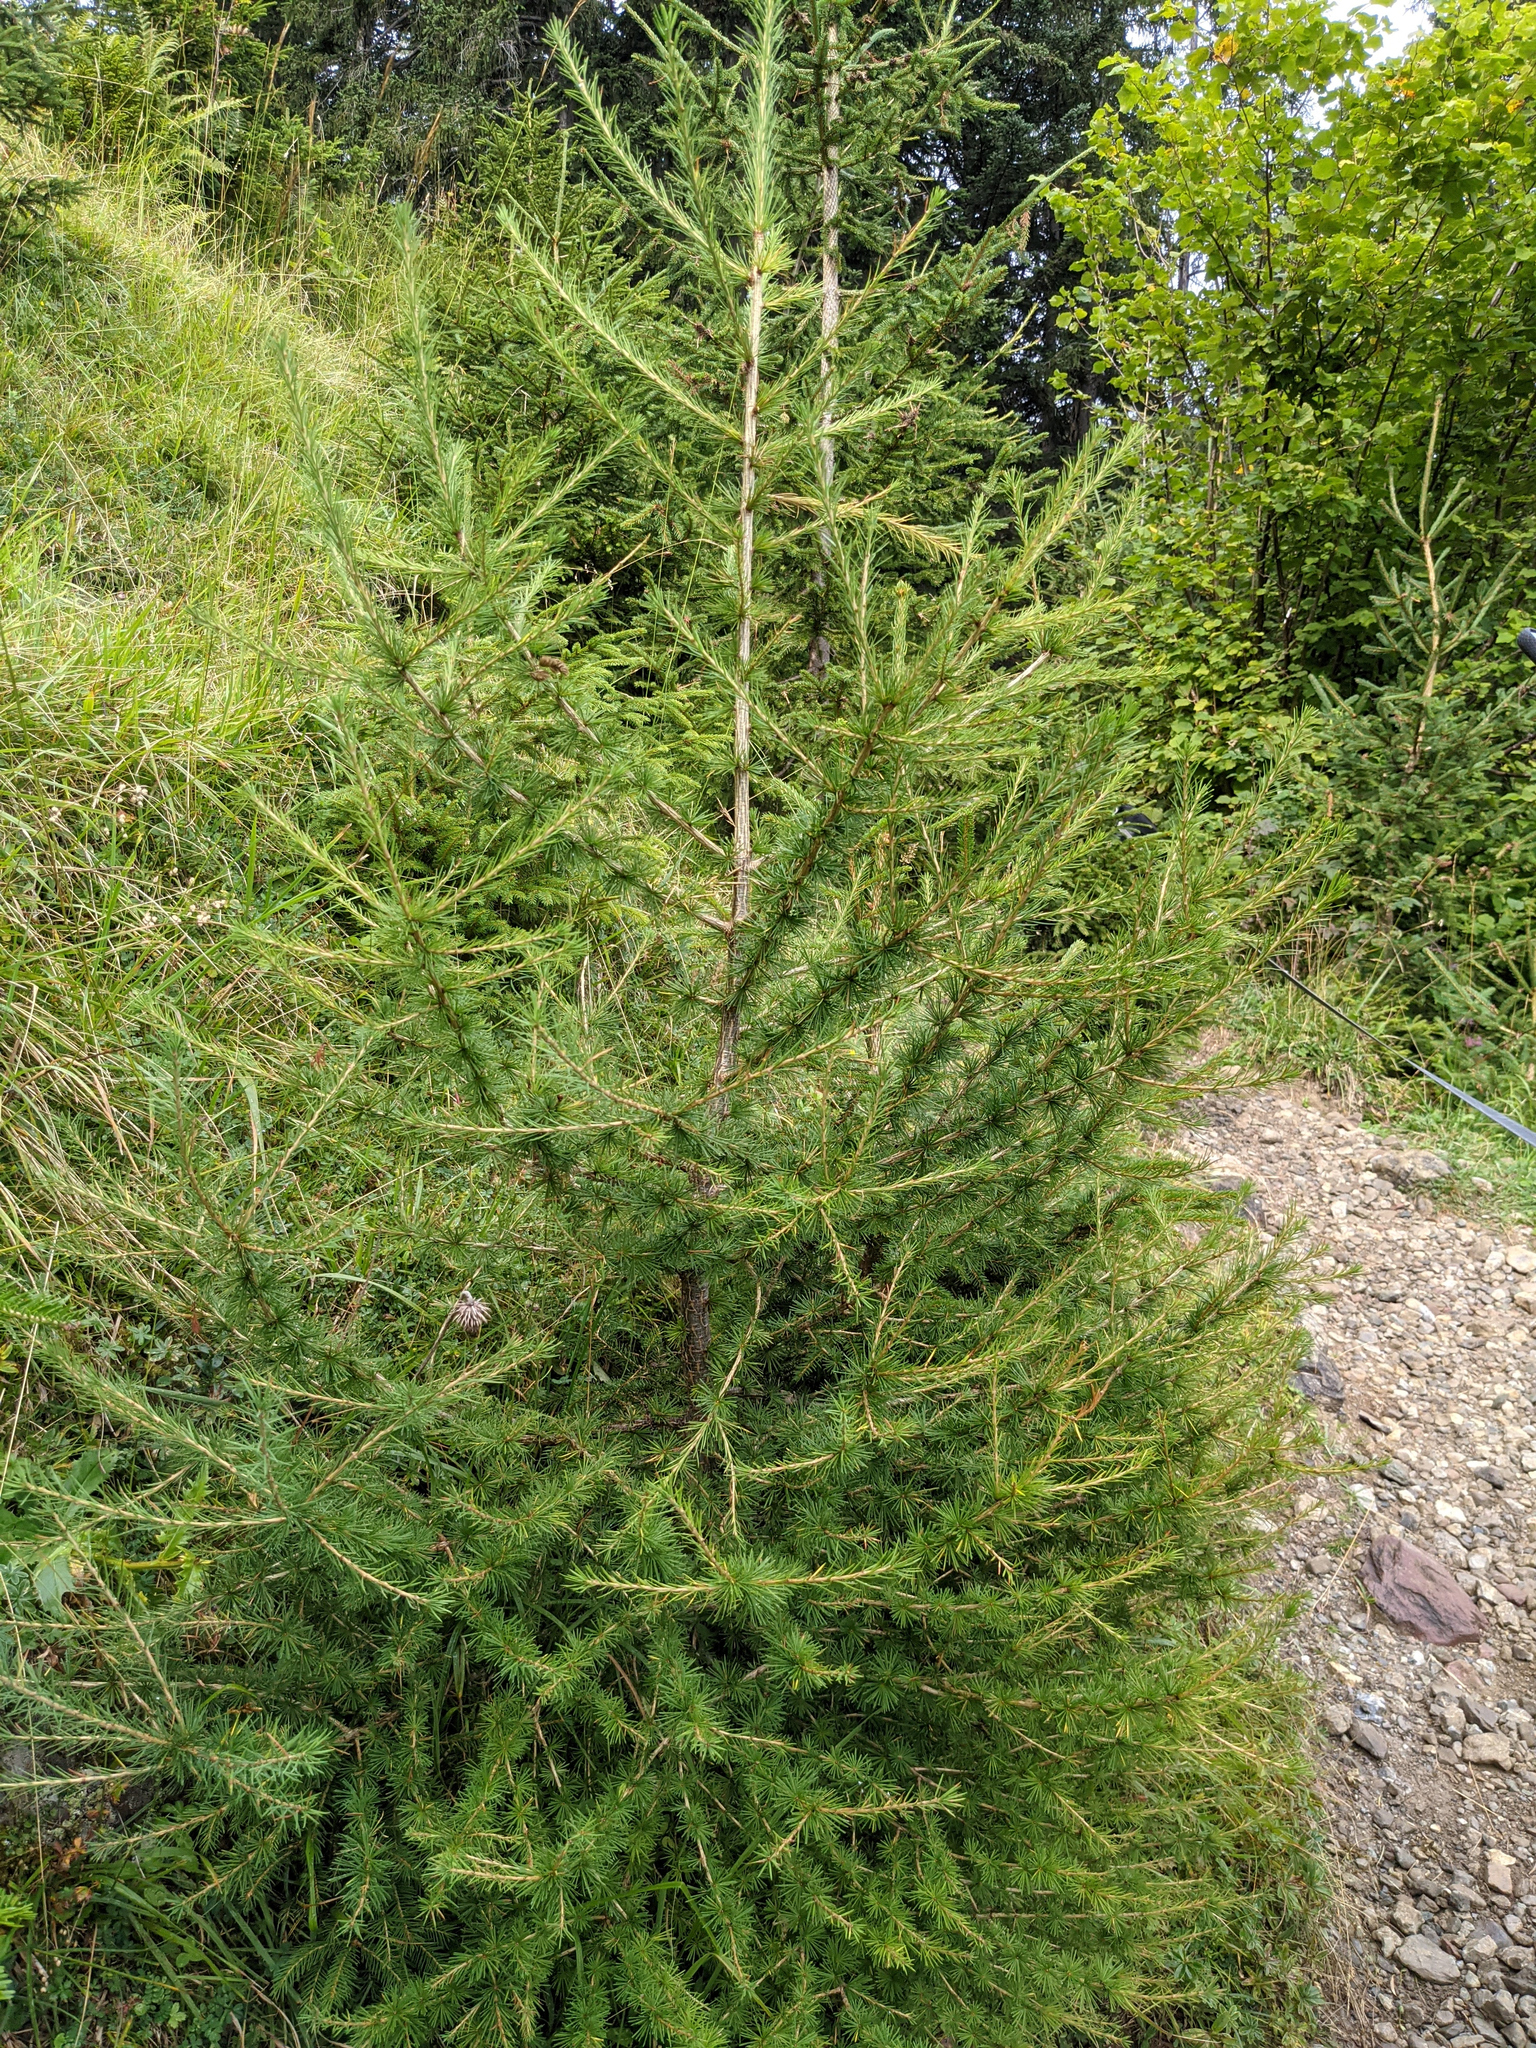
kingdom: Plantae
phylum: Tracheophyta
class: Pinopsida
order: Pinales
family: Pinaceae
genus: Larix
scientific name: Larix decidua
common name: European larch
